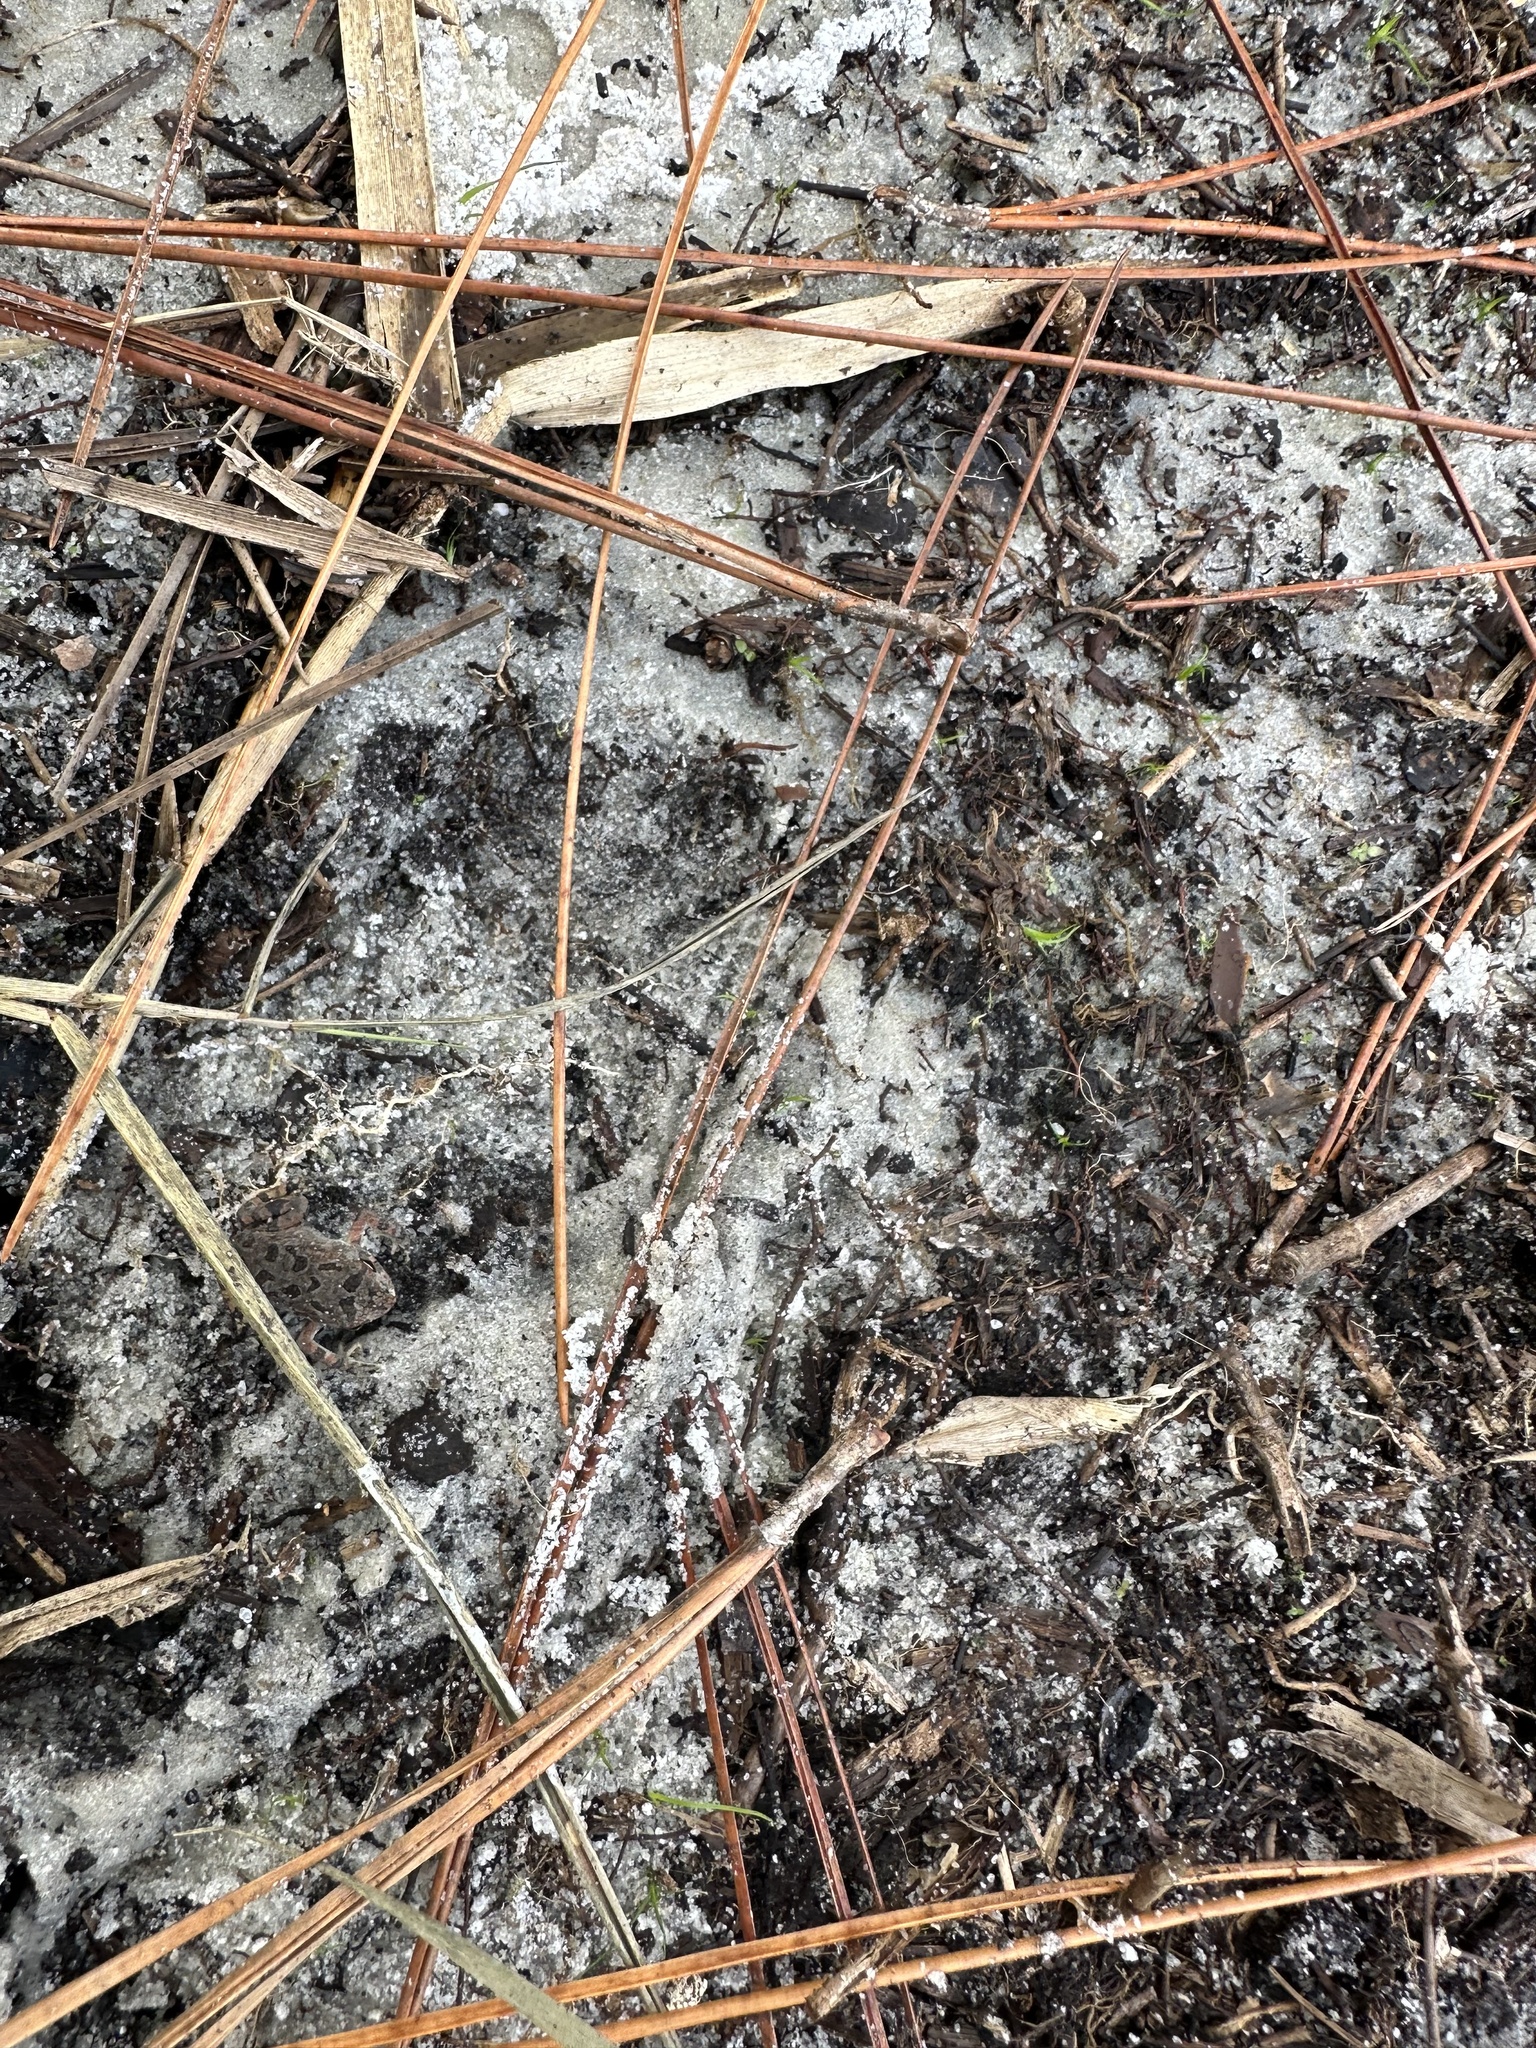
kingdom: Animalia
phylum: Chordata
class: Amphibia
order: Anura
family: Bufonidae
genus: Anaxyrus
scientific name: Anaxyrus terrestris
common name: Southern toad
